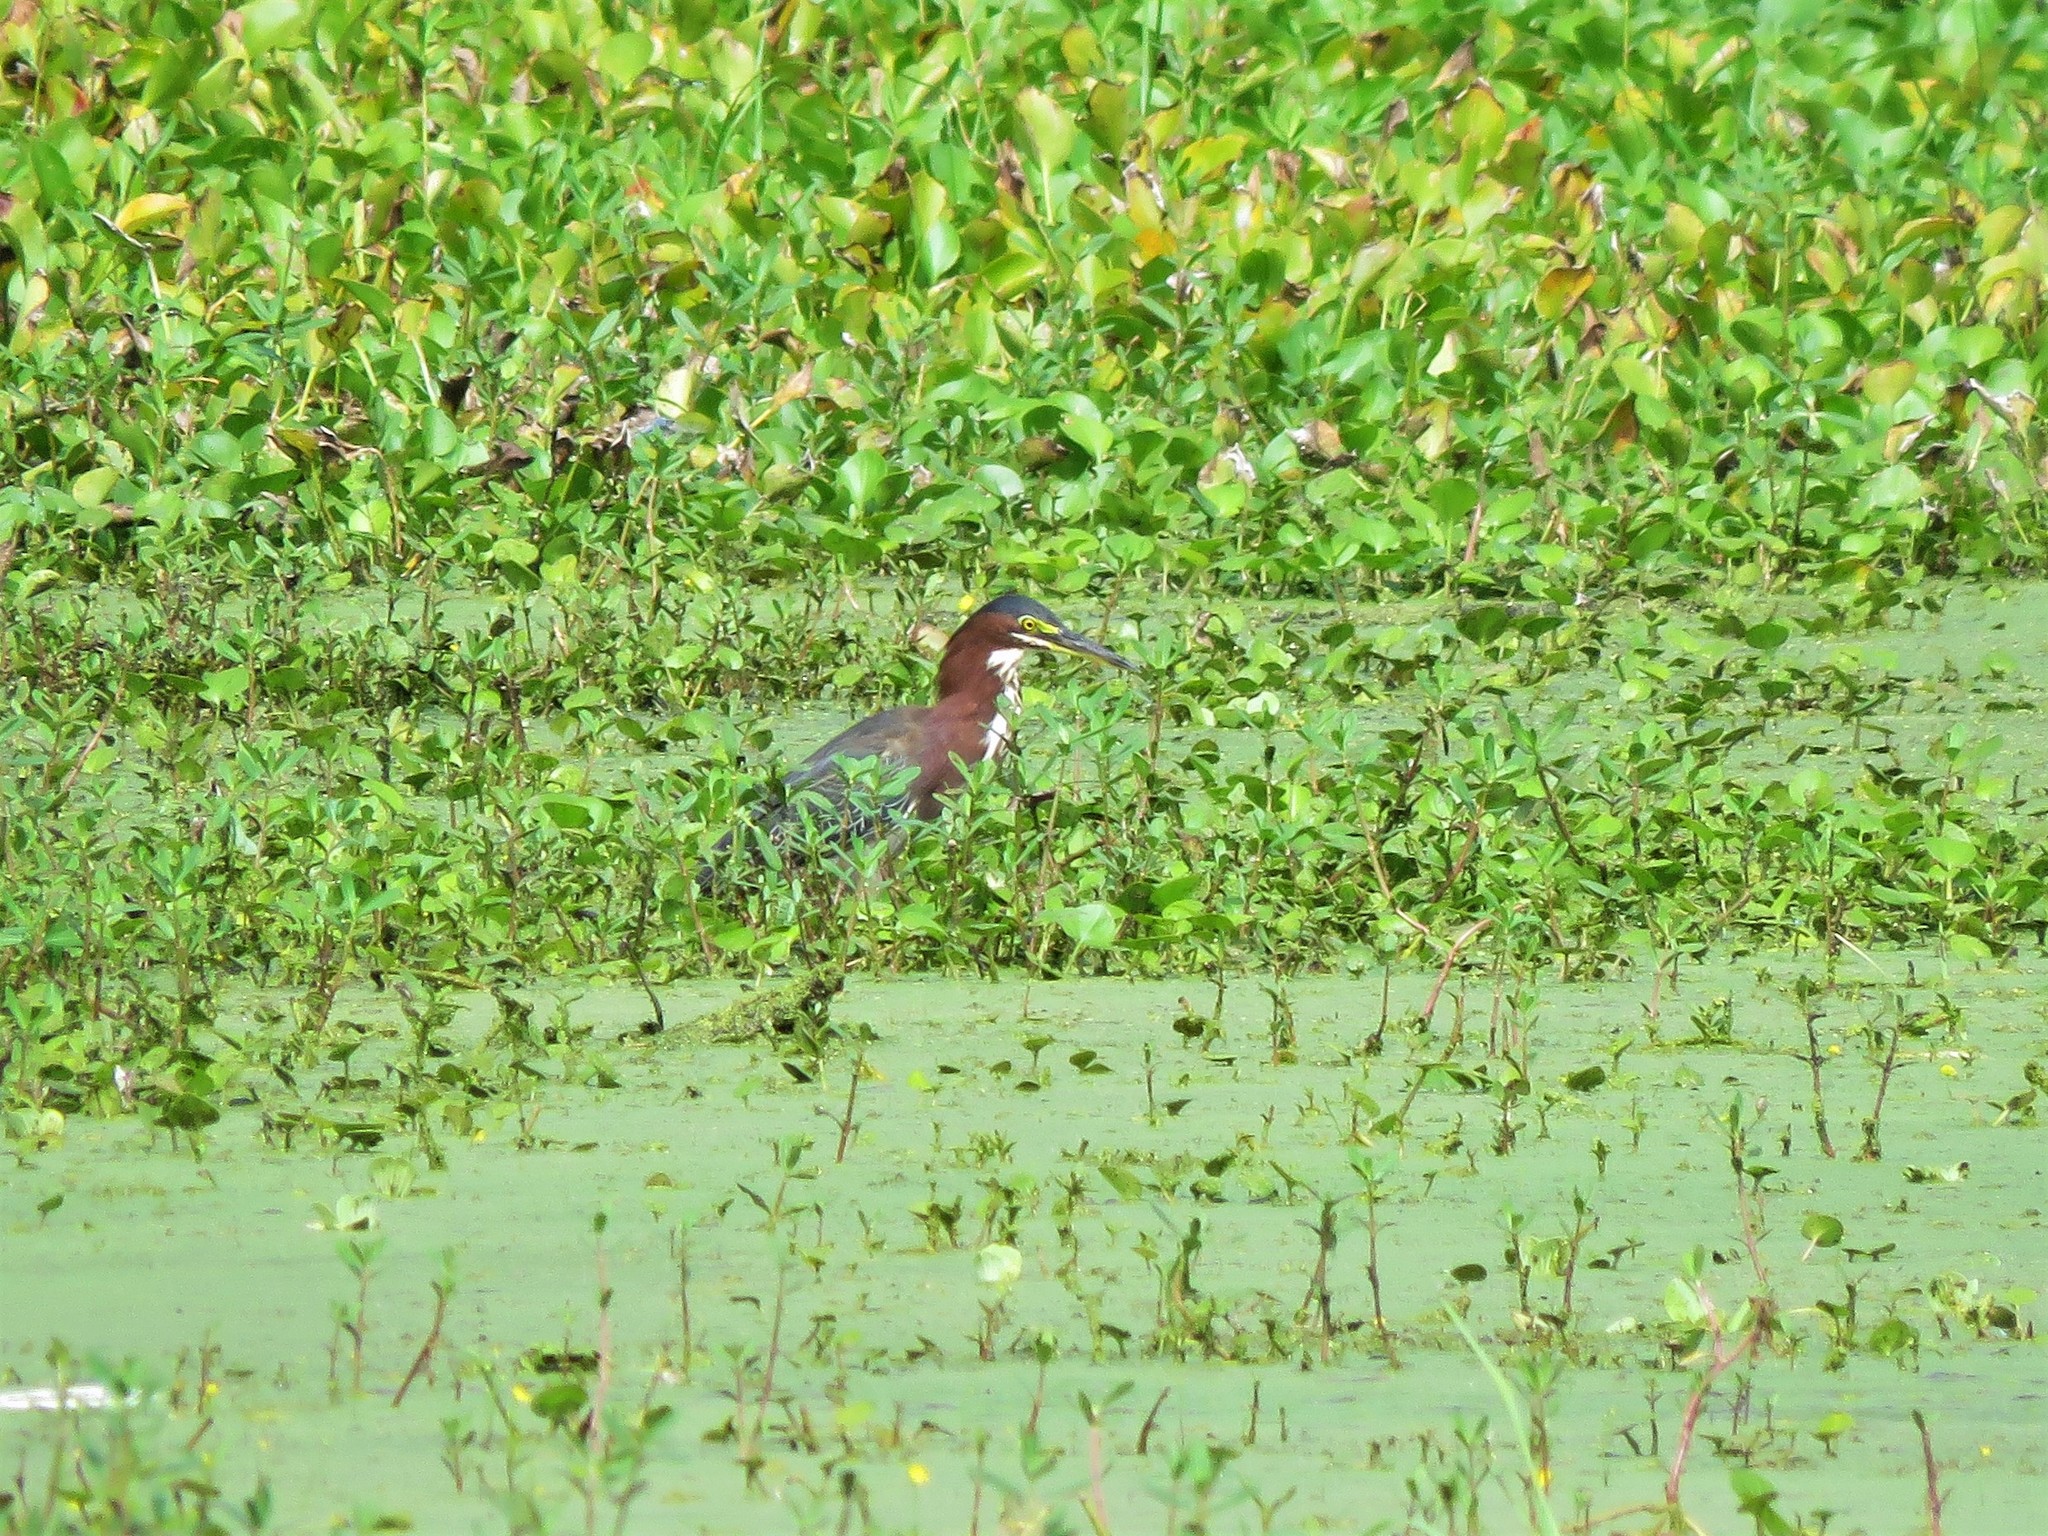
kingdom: Animalia
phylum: Chordata
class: Aves
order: Pelecaniformes
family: Ardeidae
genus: Butorides
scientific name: Butorides virescens
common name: Green heron
